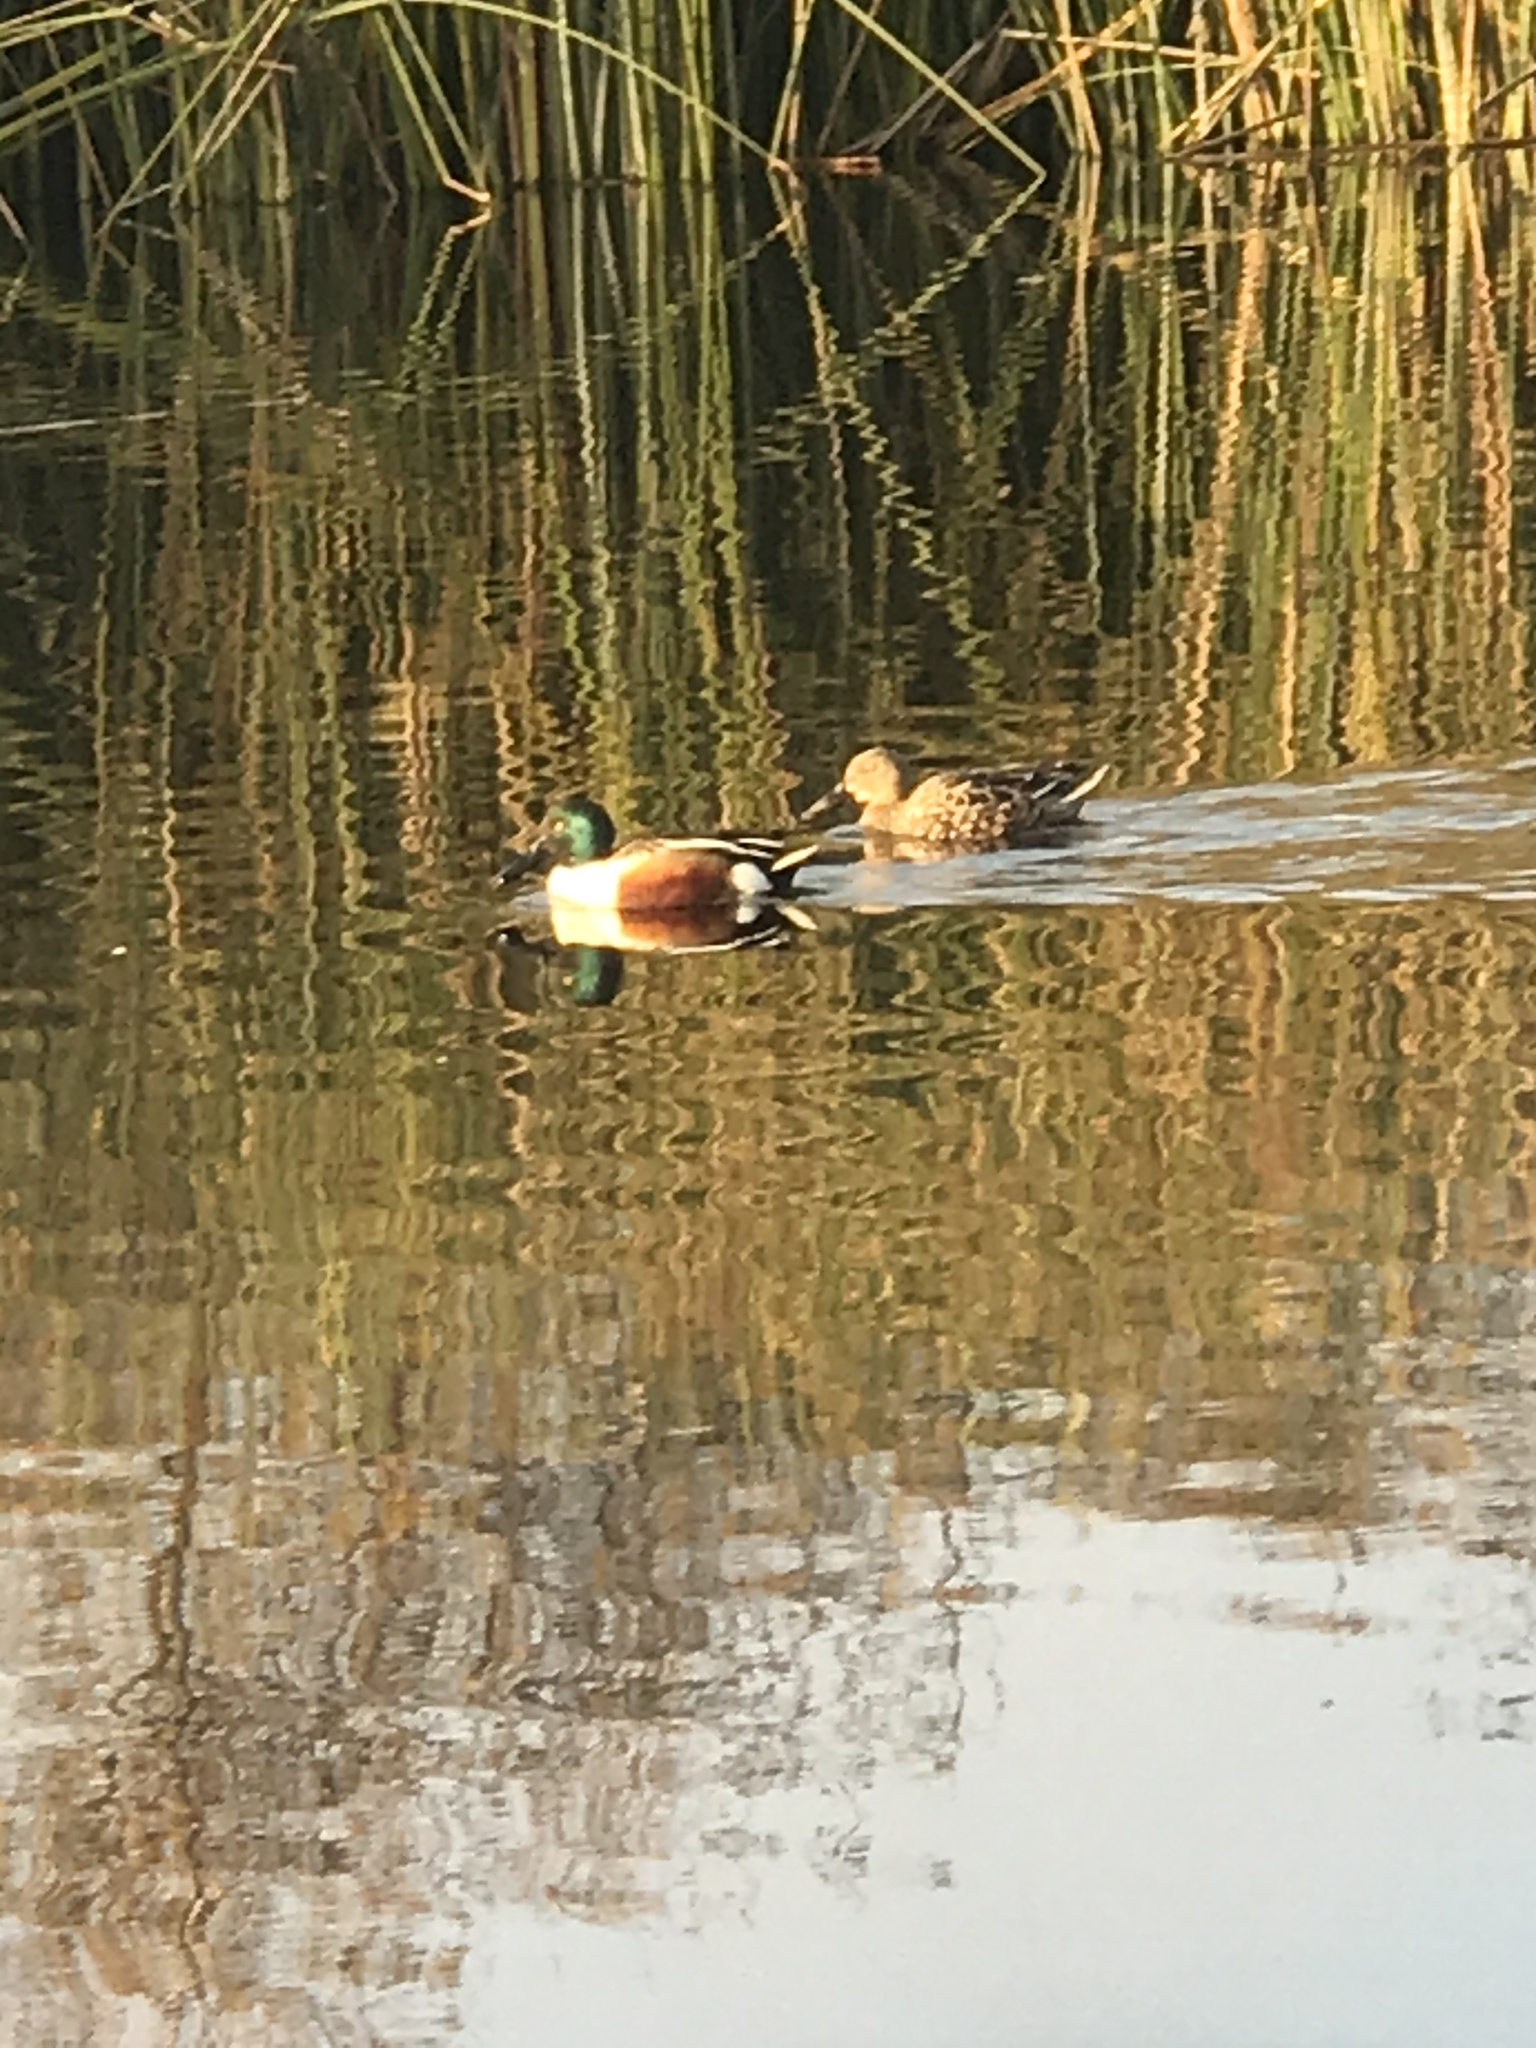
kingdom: Animalia
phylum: Chordata
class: Aves
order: Anseriformes
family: Anatidae
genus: Spatula
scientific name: Spatula clypeata
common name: Northern shoveler
